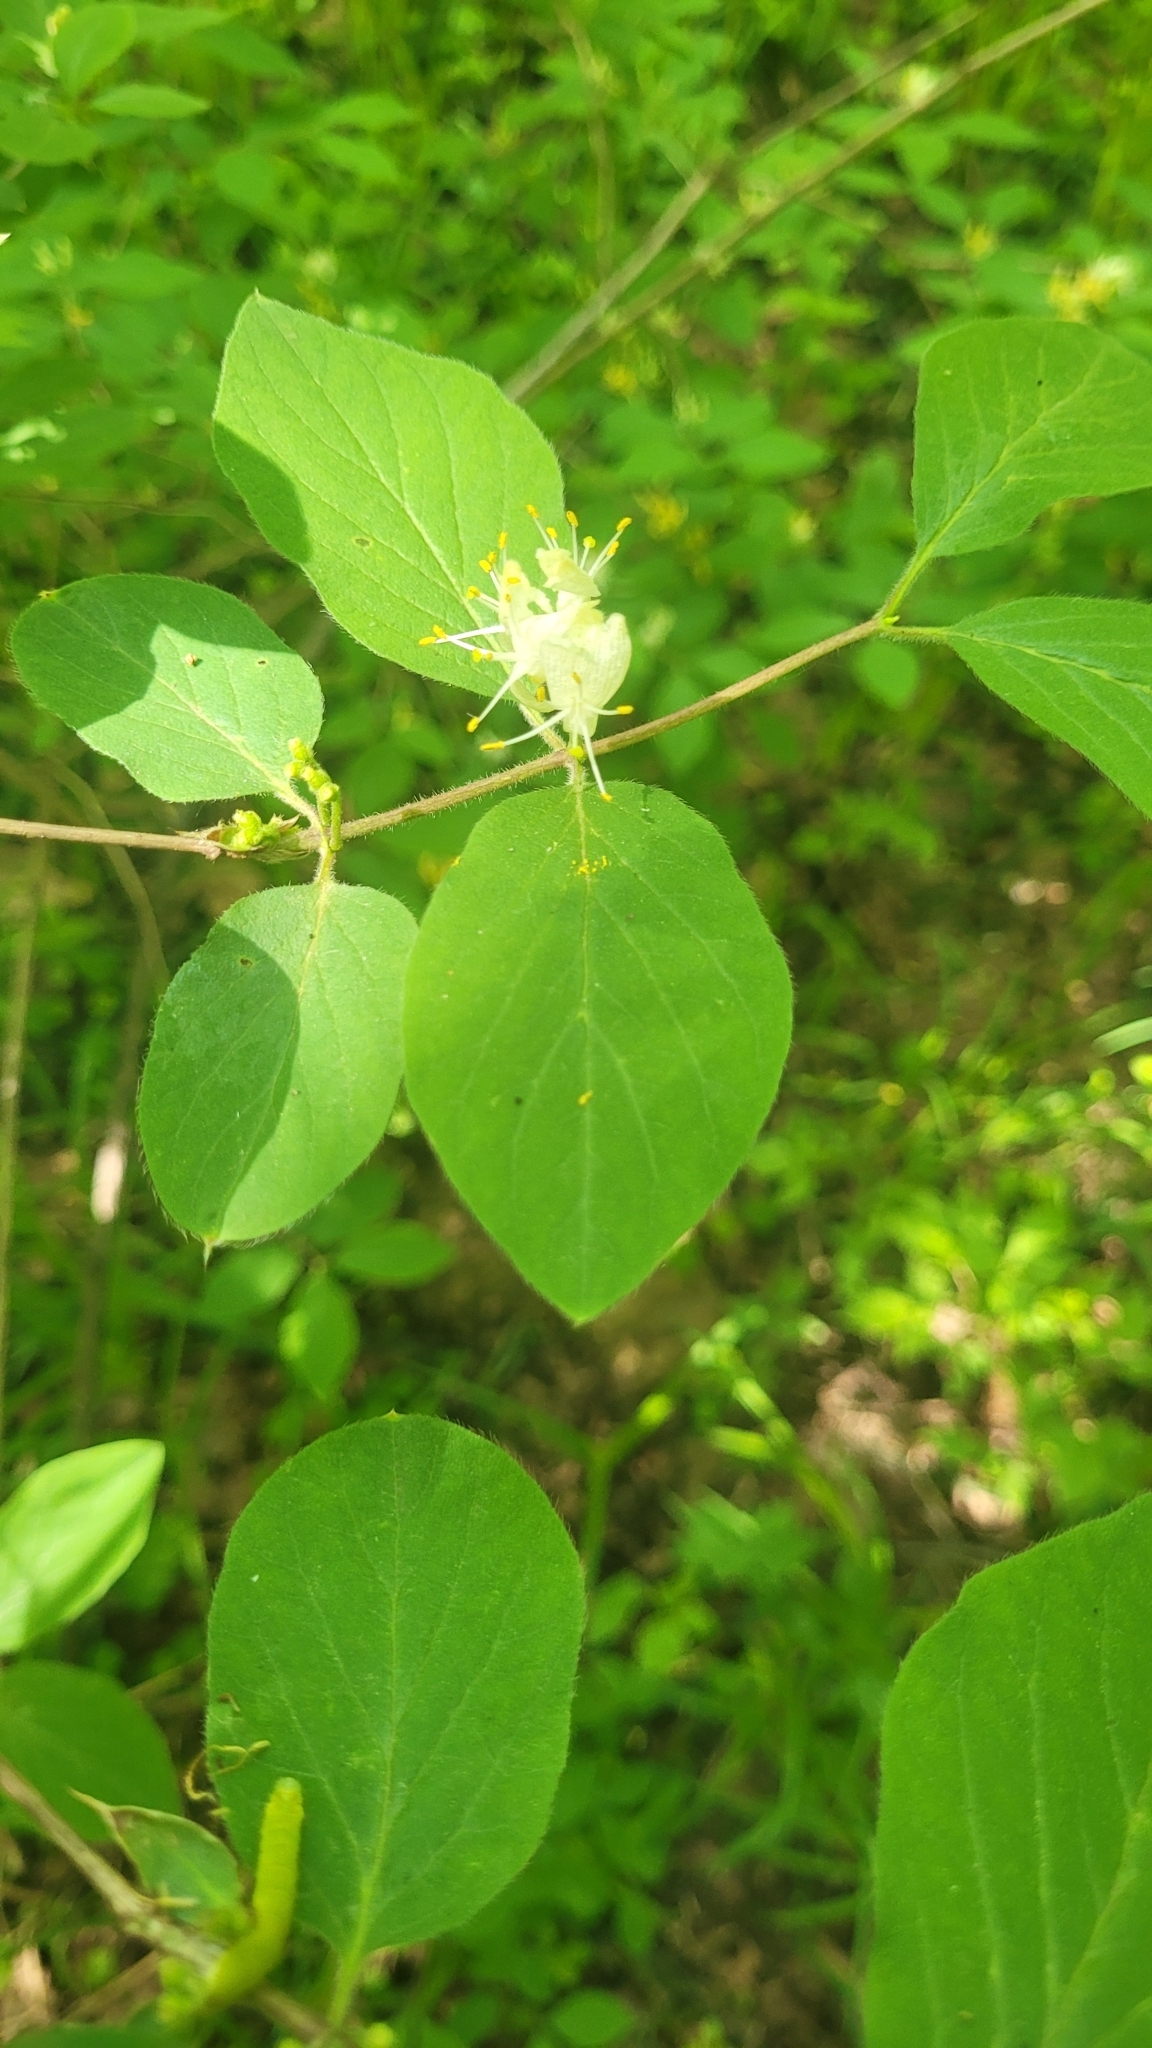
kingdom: Plantae
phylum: Tracheophyta
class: Magnoliopsida
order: Dipsacales
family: Caprifoliaceae
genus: Lonicera
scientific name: Lonicera xylosteum
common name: Fly honeysuckle
